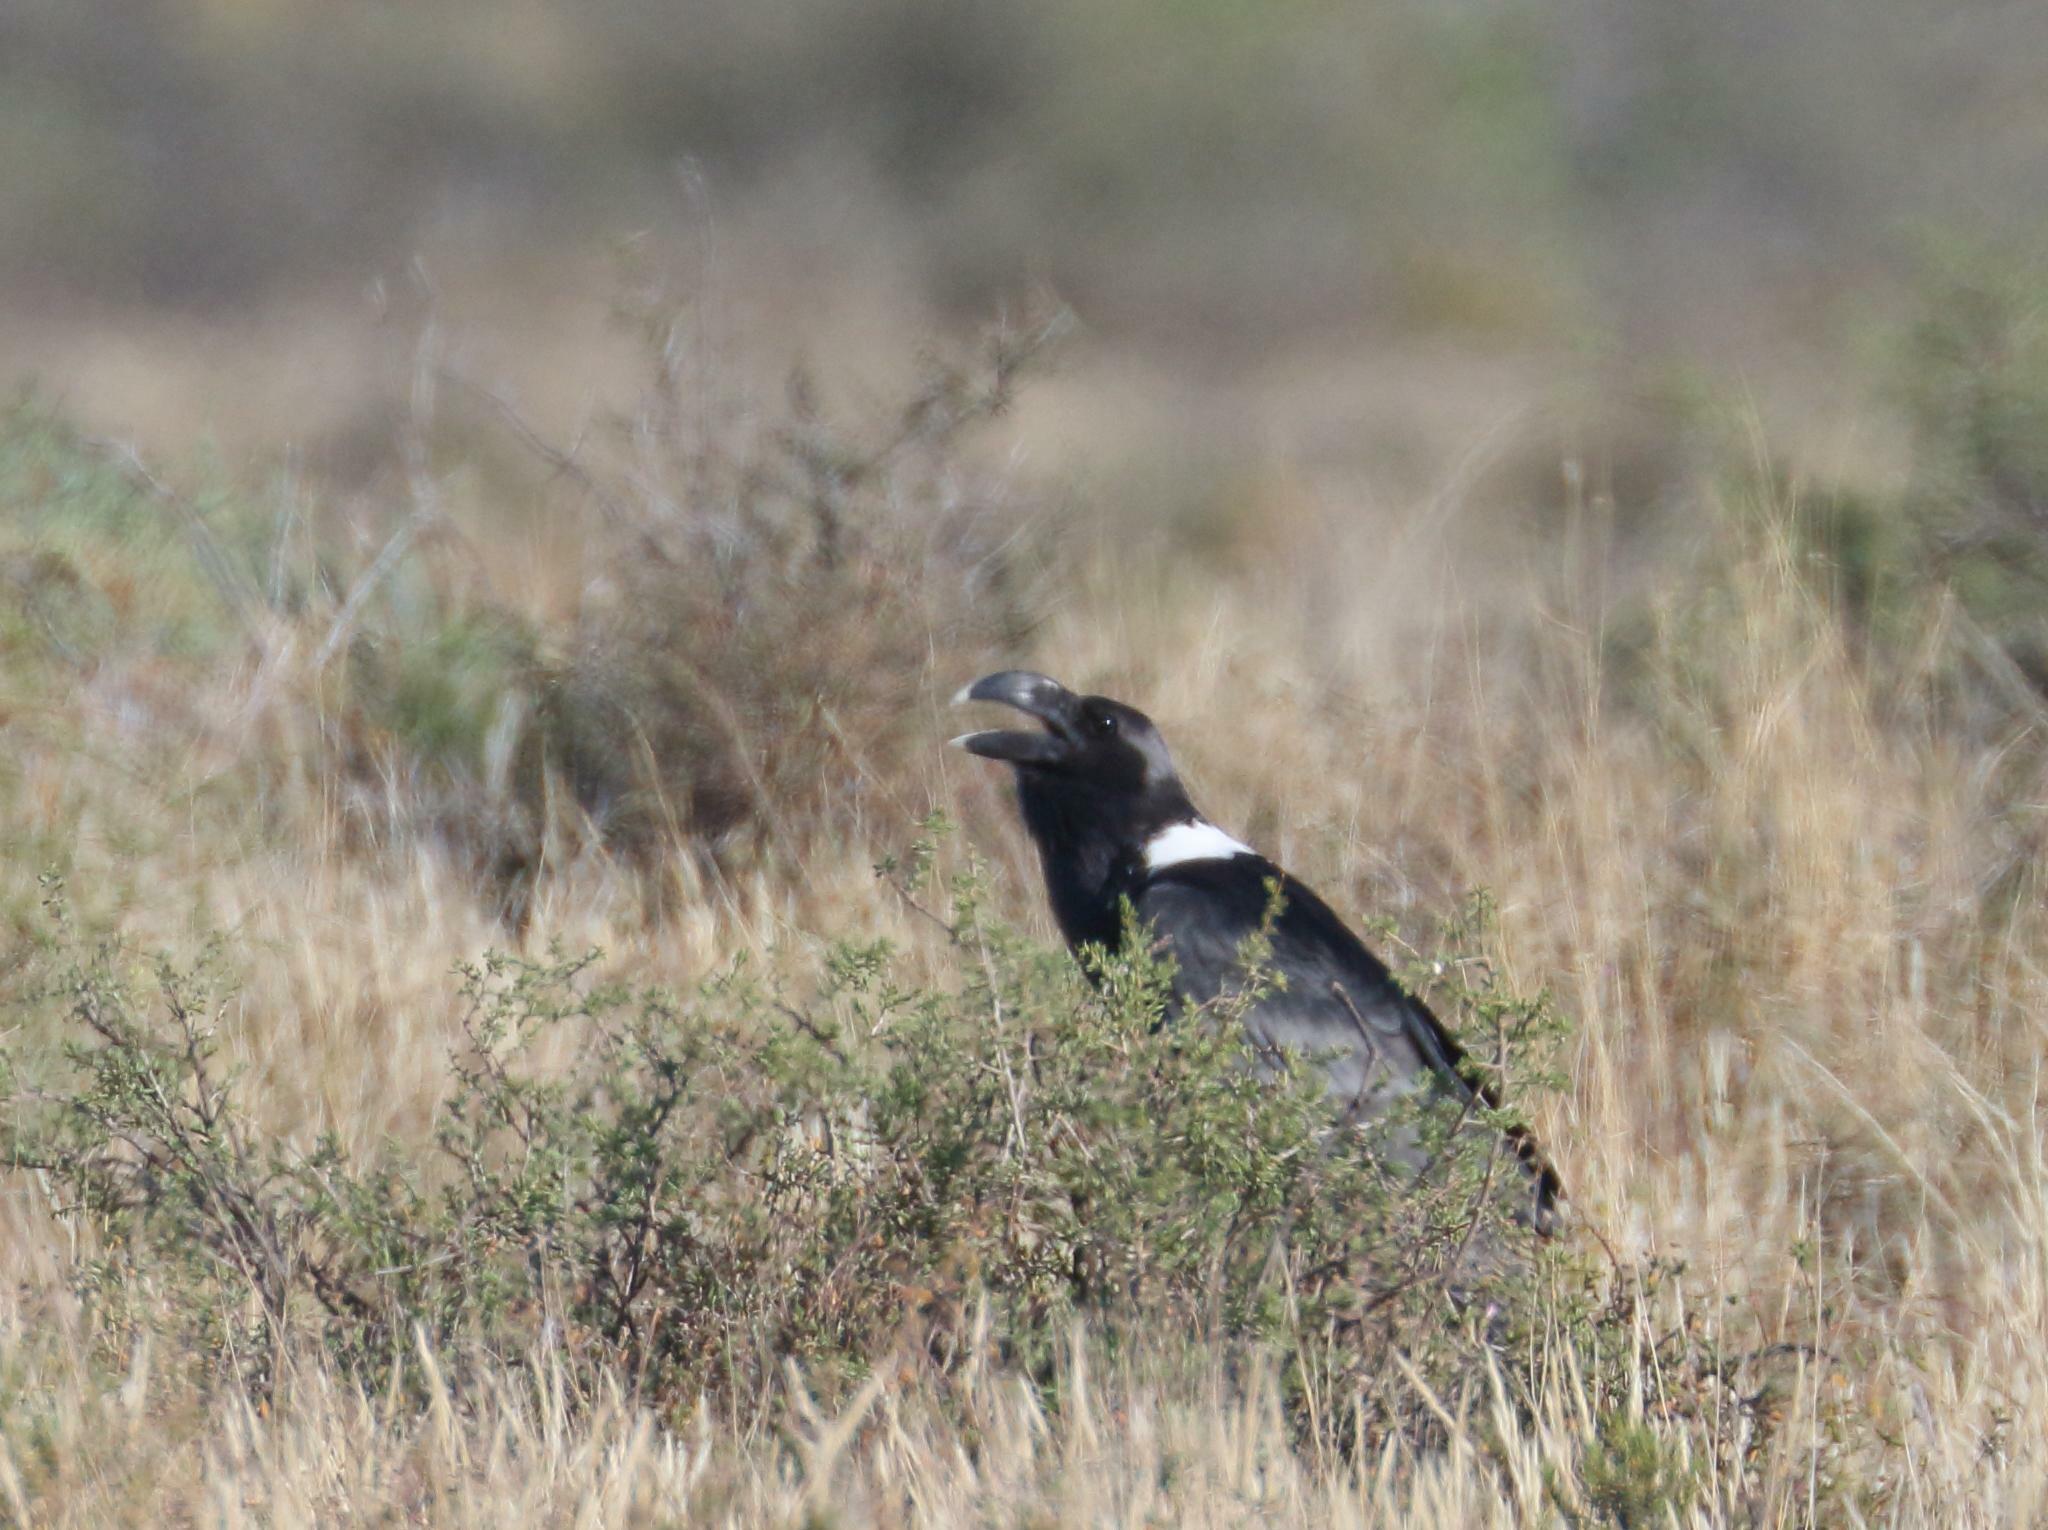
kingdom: Animalia
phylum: Chordata
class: Aves
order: Passeriformes
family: Corvidae
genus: Corvus
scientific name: Corvus albicollis
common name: White-necked raven
